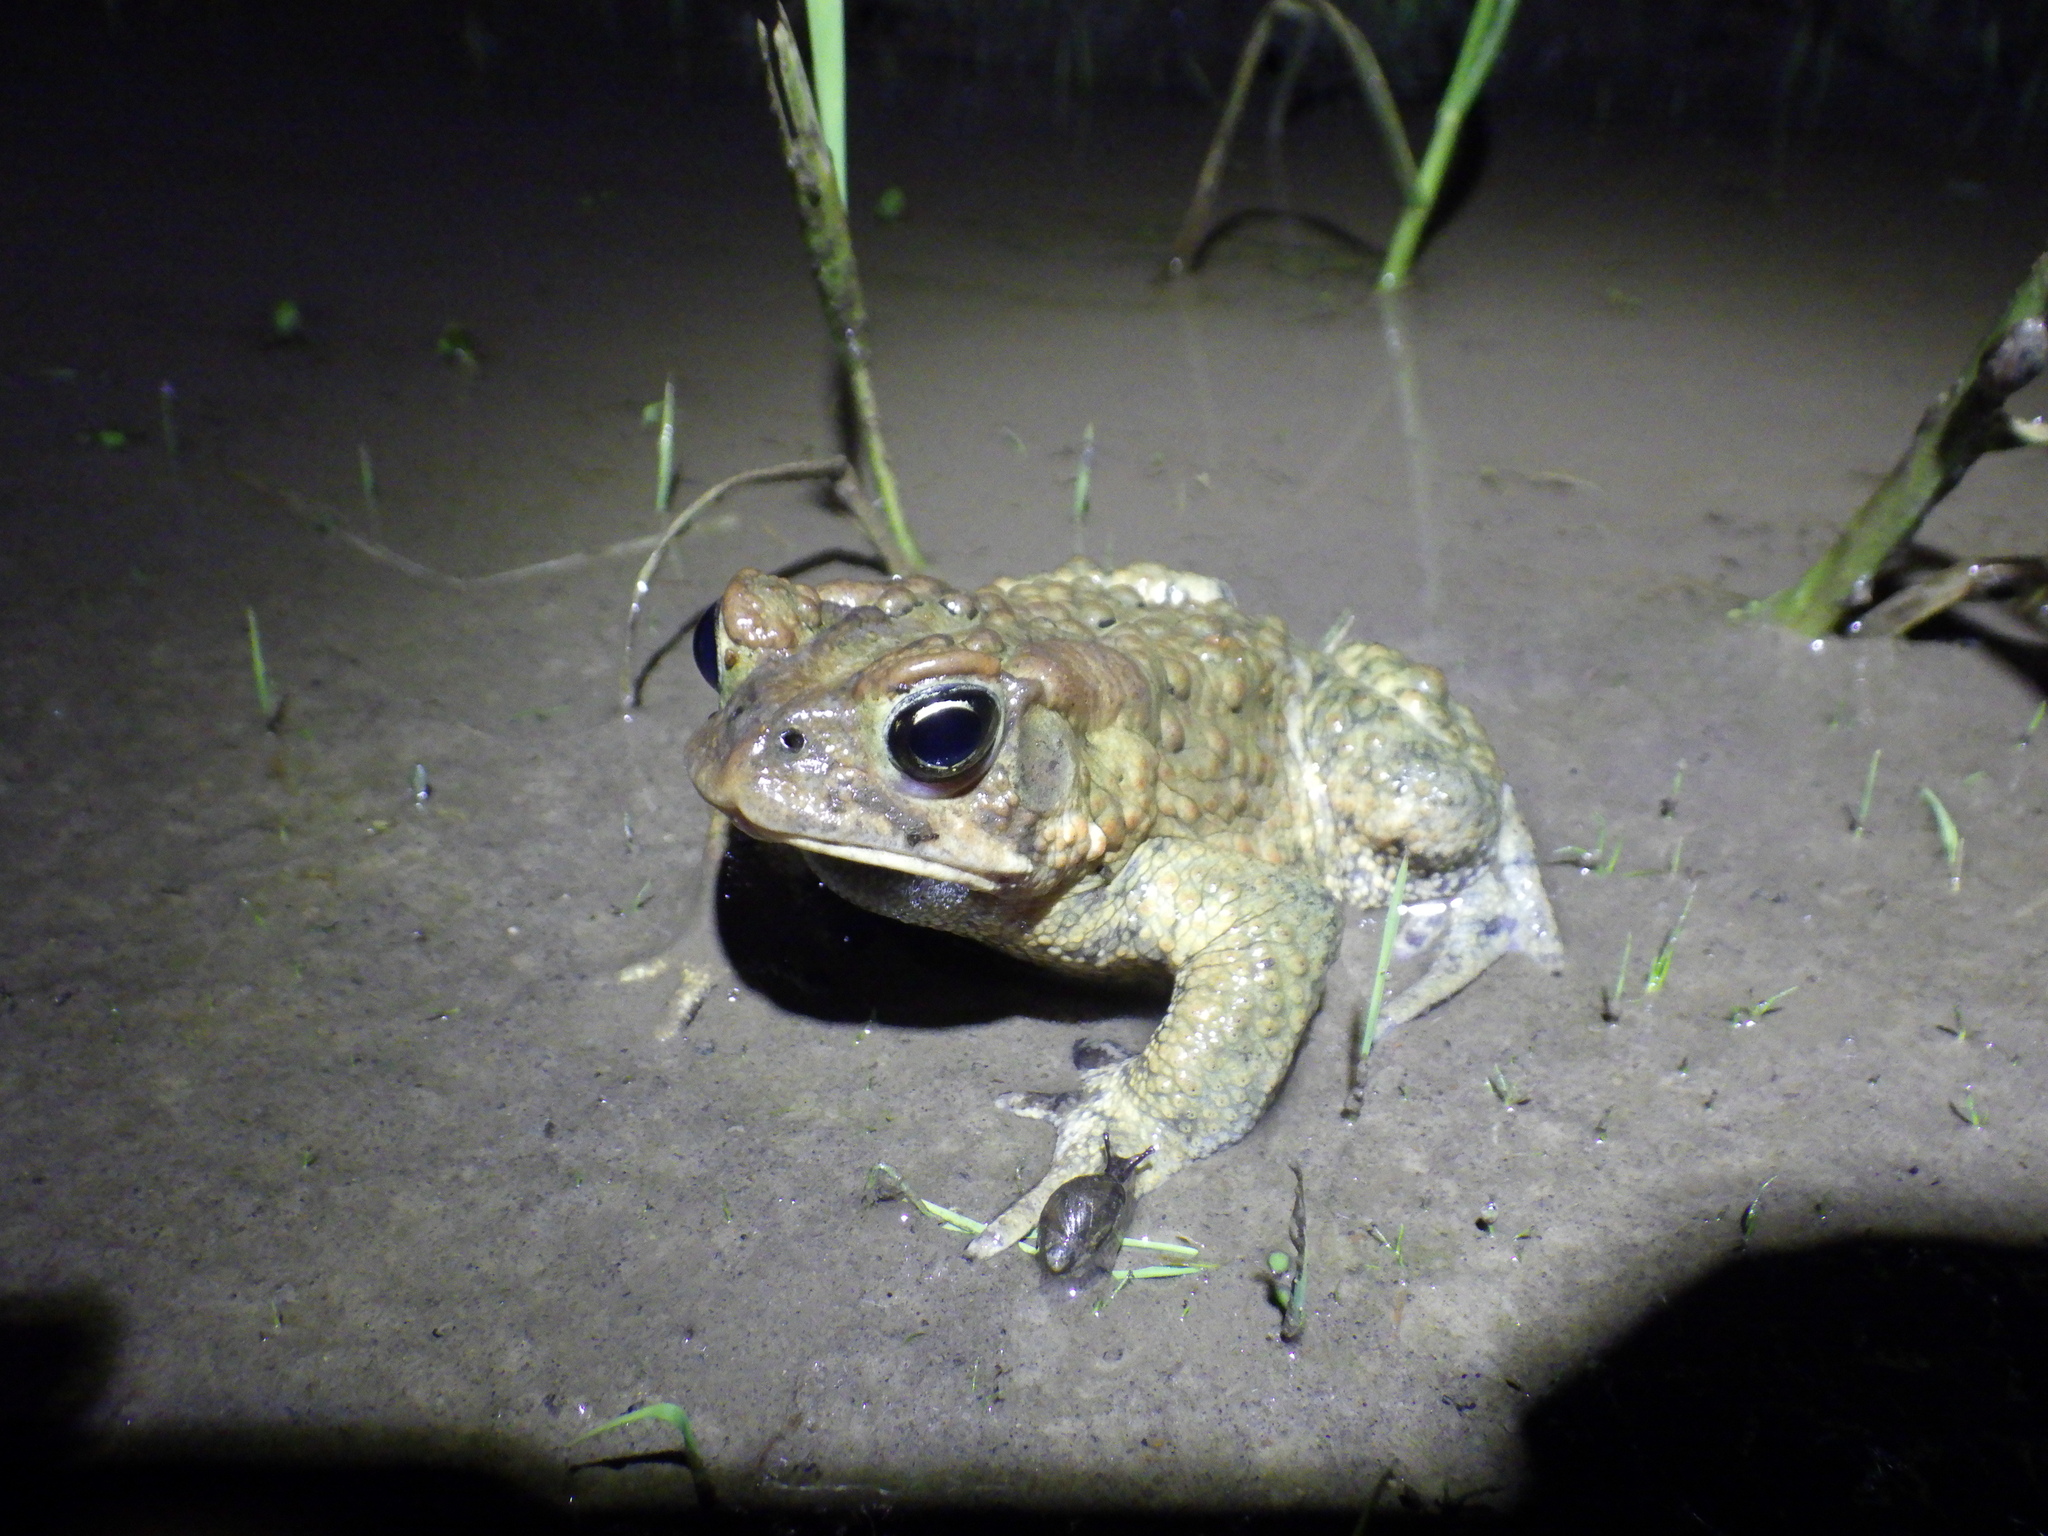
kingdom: Animalia
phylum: Chordata
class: Amphibia
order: Anura
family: Bufonidae
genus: Anaxyrus
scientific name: Anaxyrus americanus
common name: American toad
